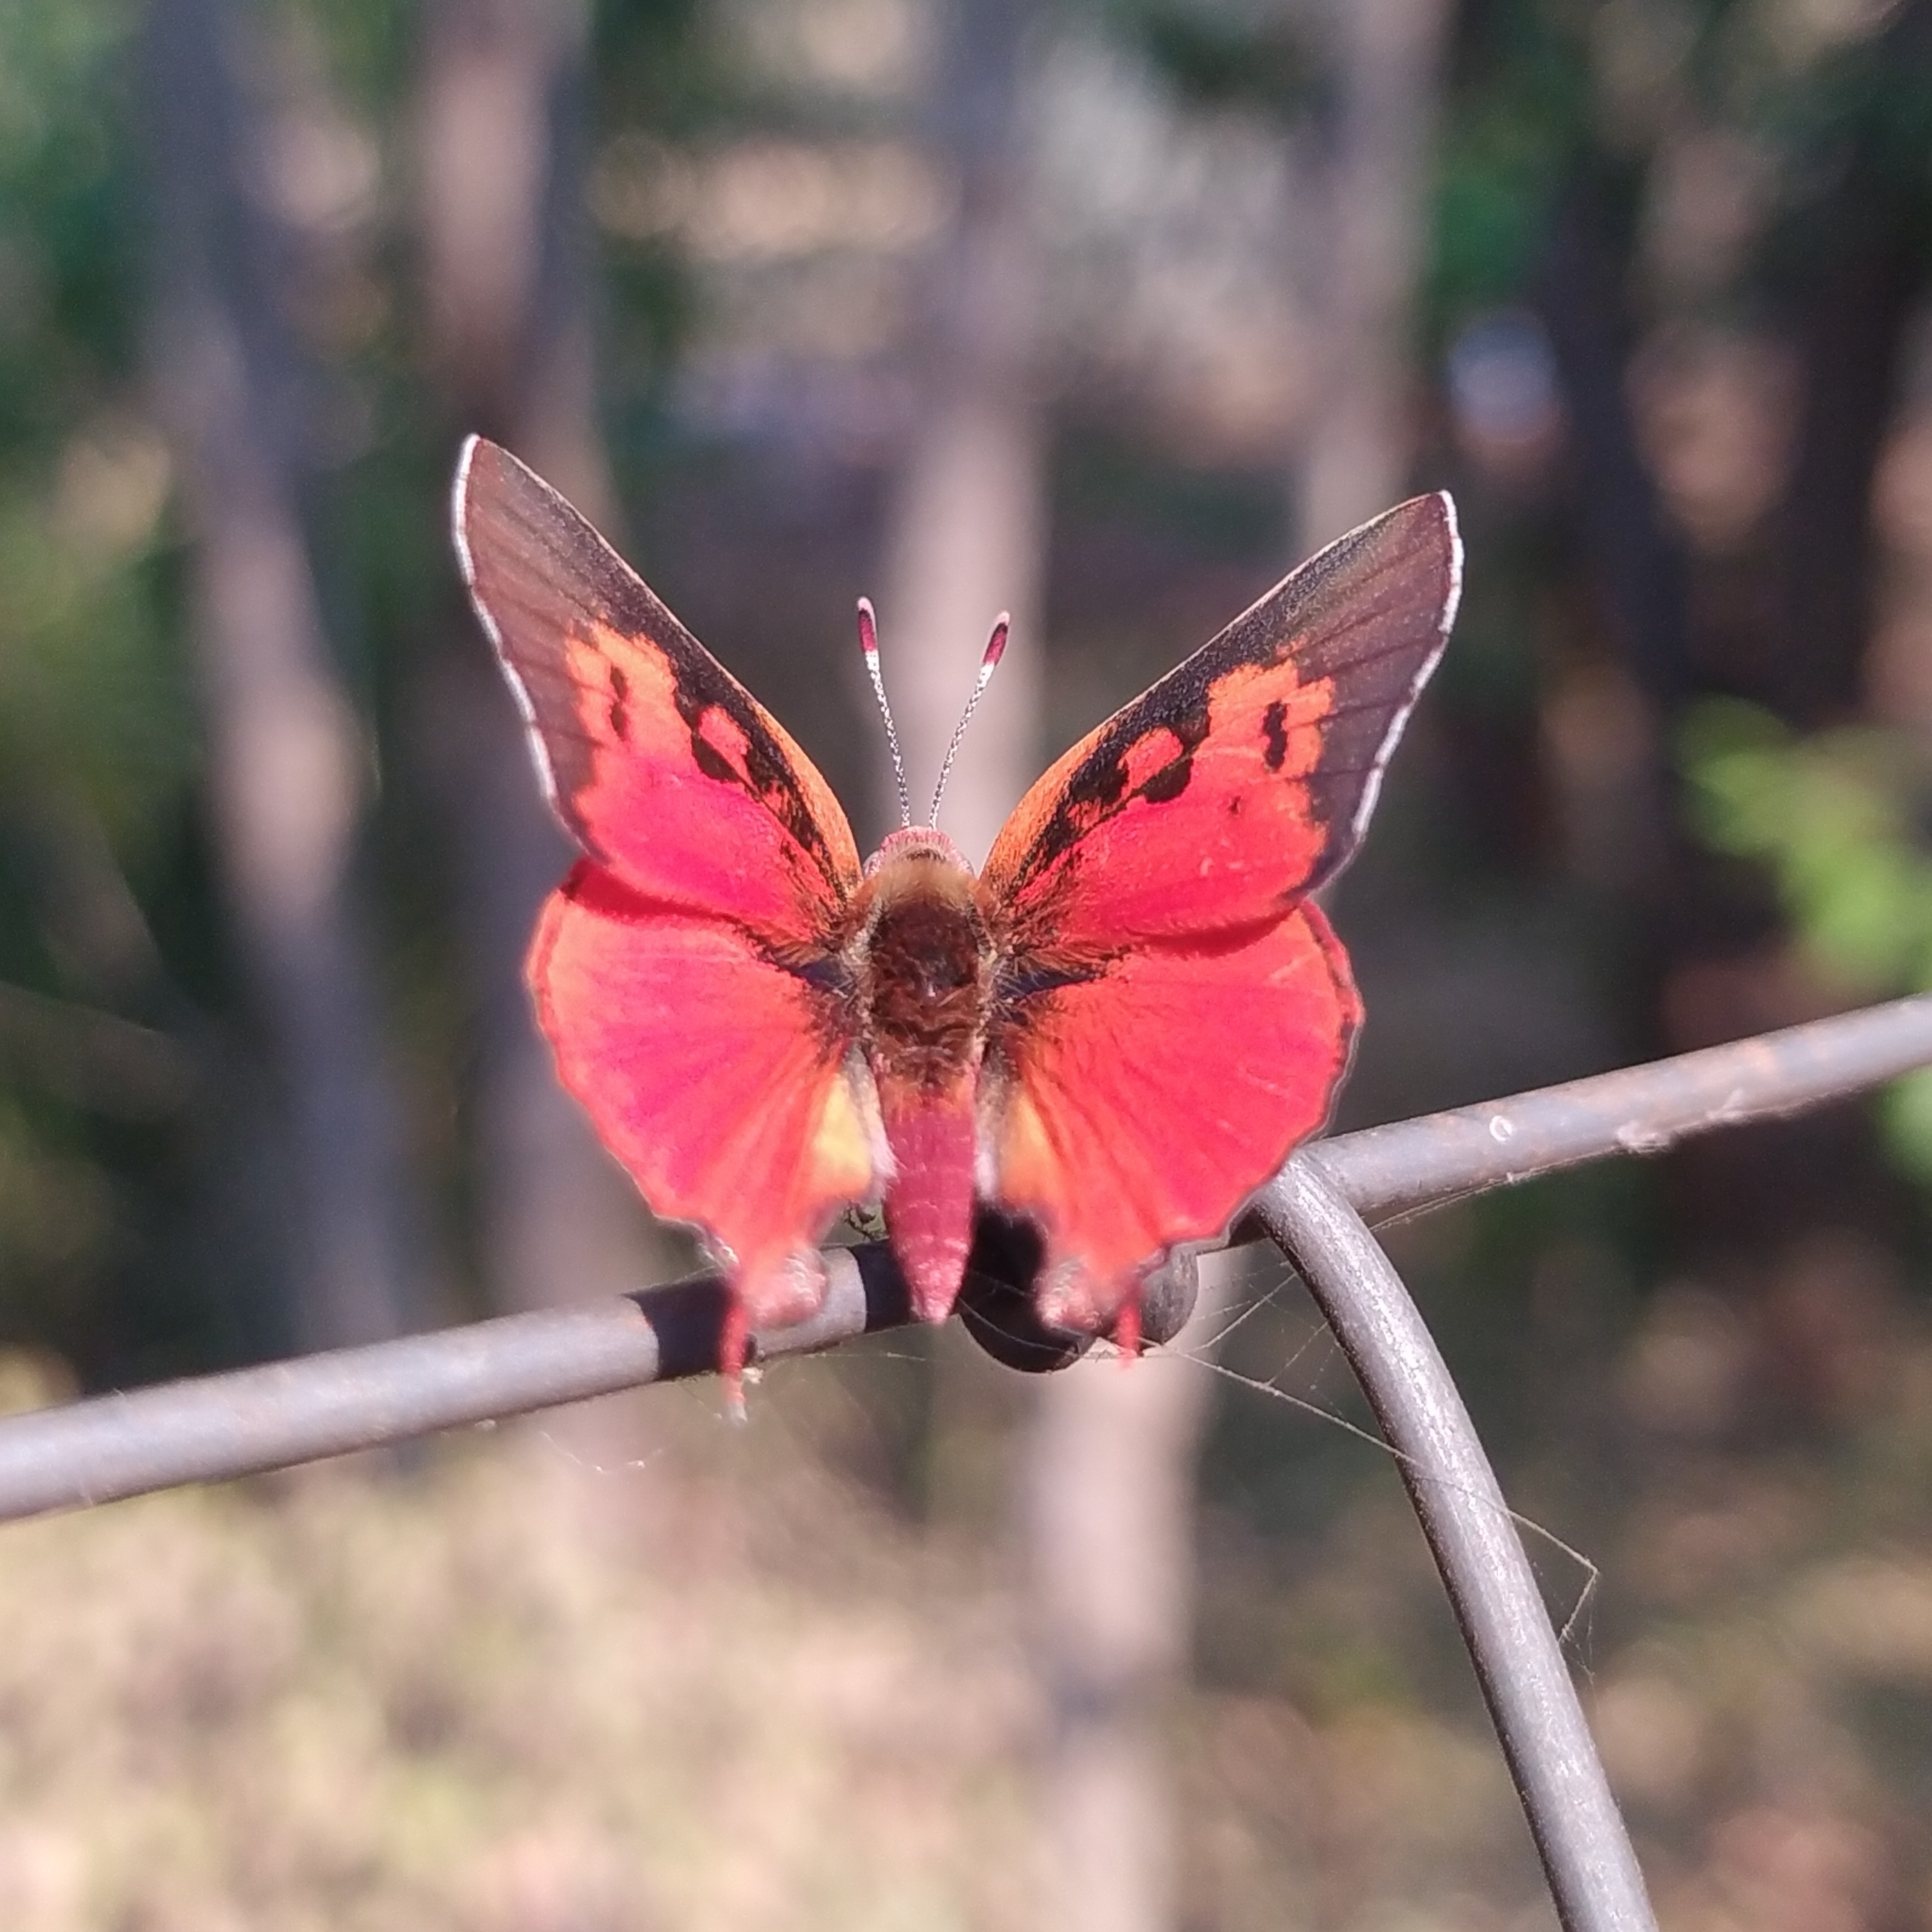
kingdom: Animalia
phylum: Arthropoda
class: Insecta
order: Lepidoptera
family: Lycaenidae
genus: Axiocerses
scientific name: Axiocerses perion
